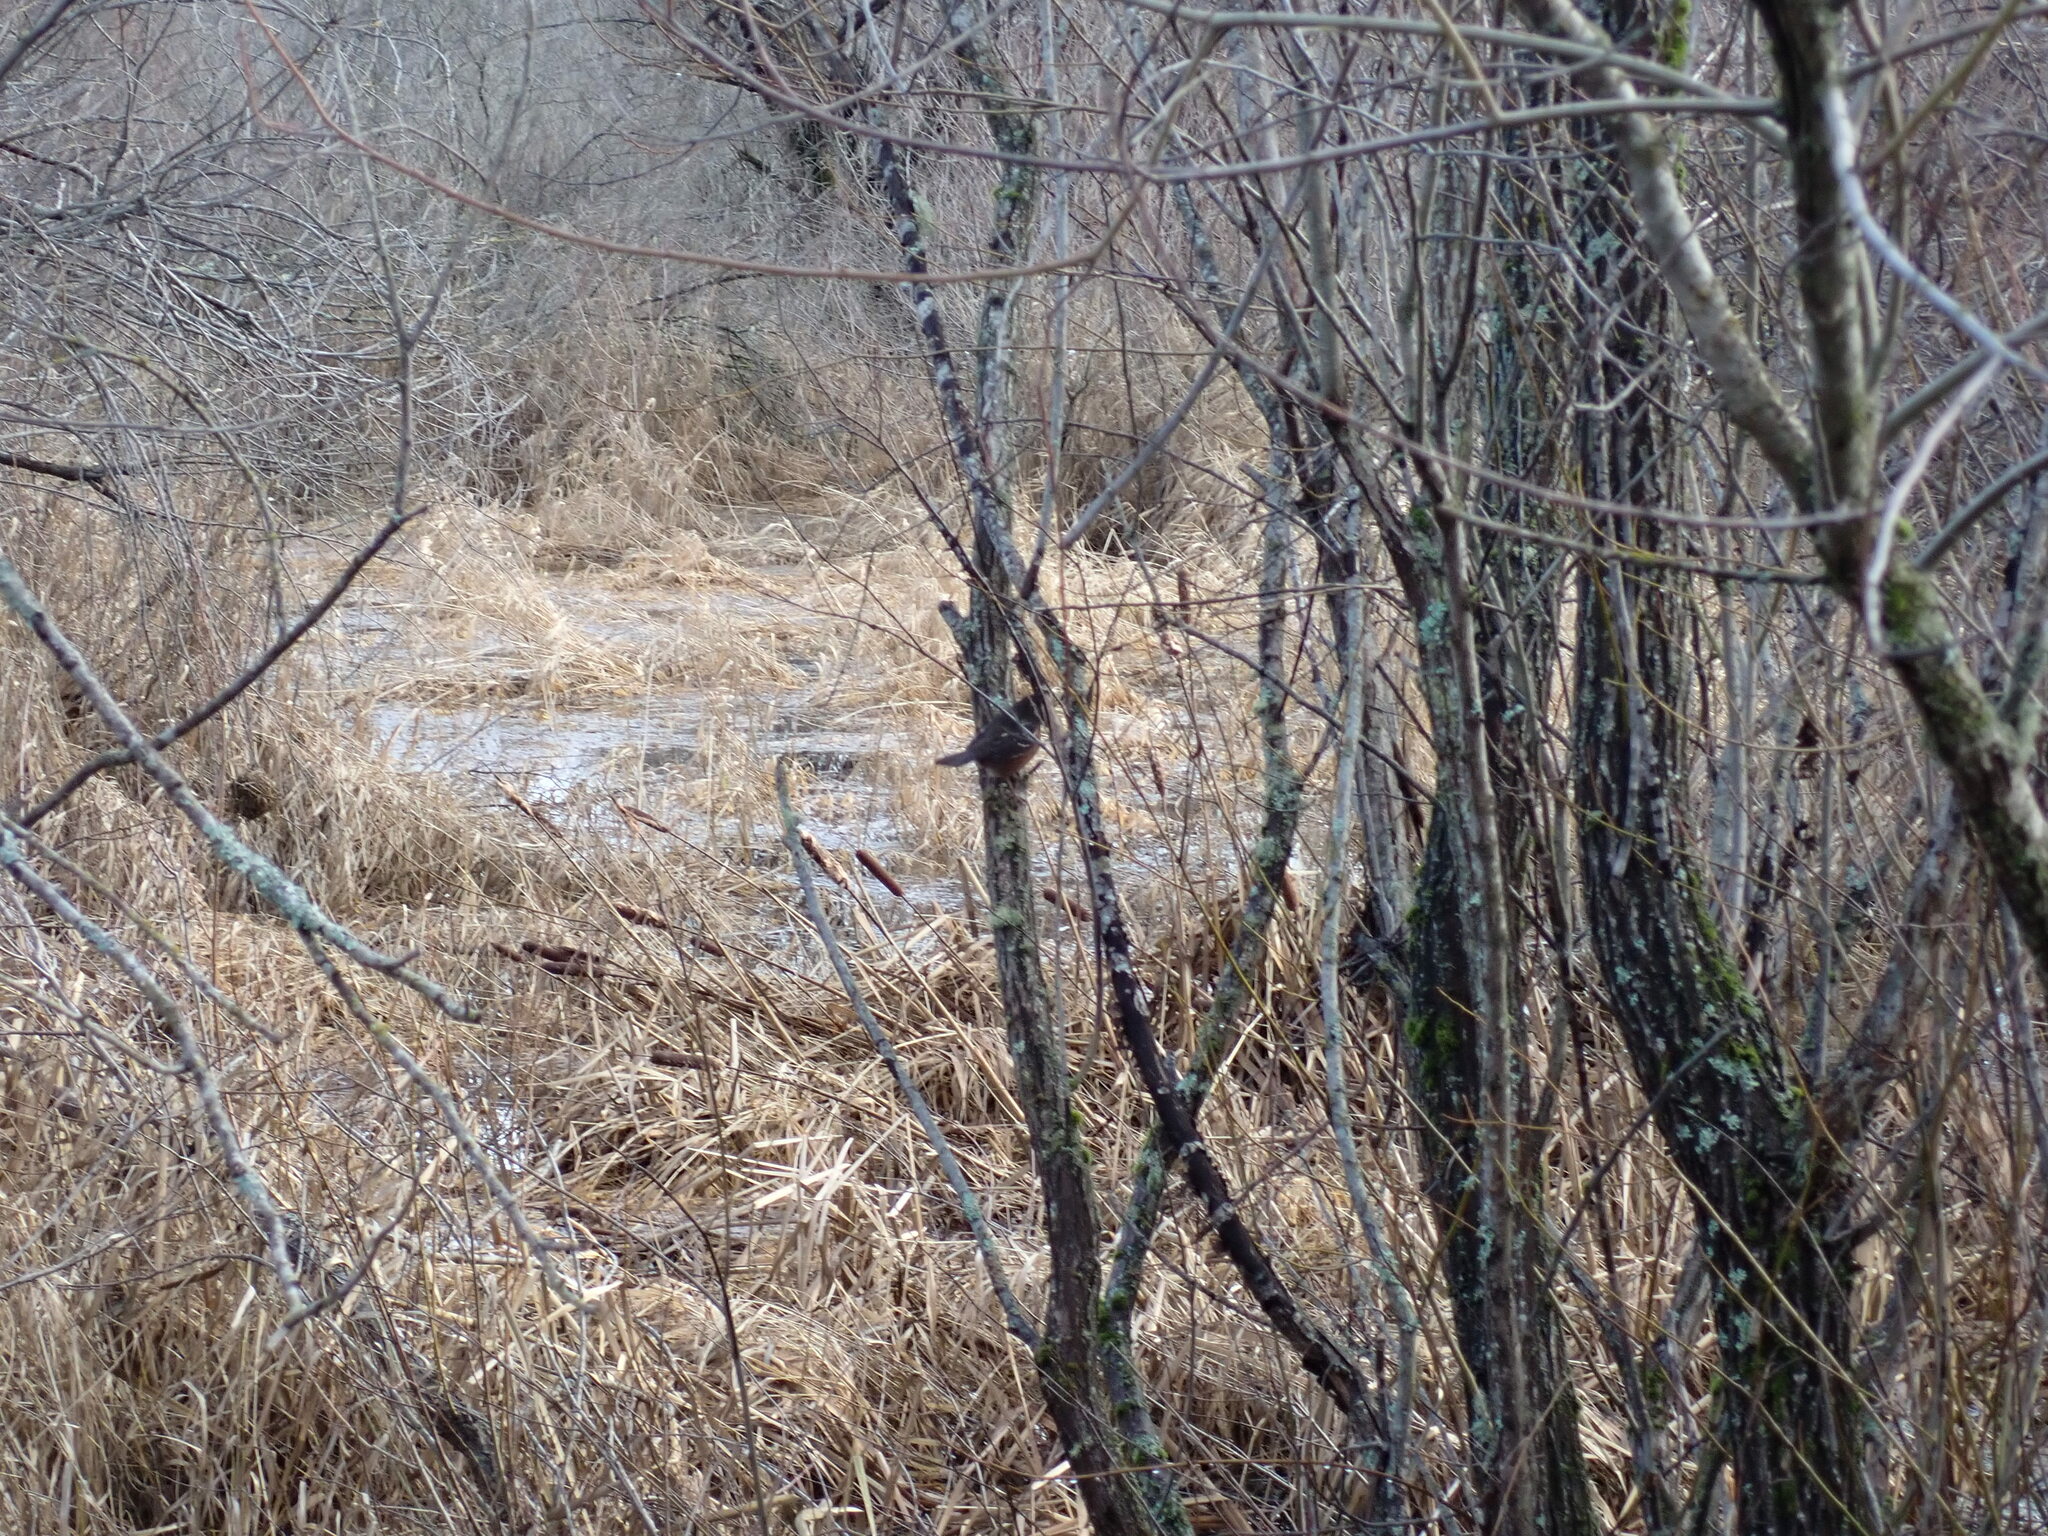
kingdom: Animalia
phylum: Chordata
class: Aves
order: Passeriformes
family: Passerellidae
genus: Pipilo
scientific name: Pipilo maculatus
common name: Spotted towhee
